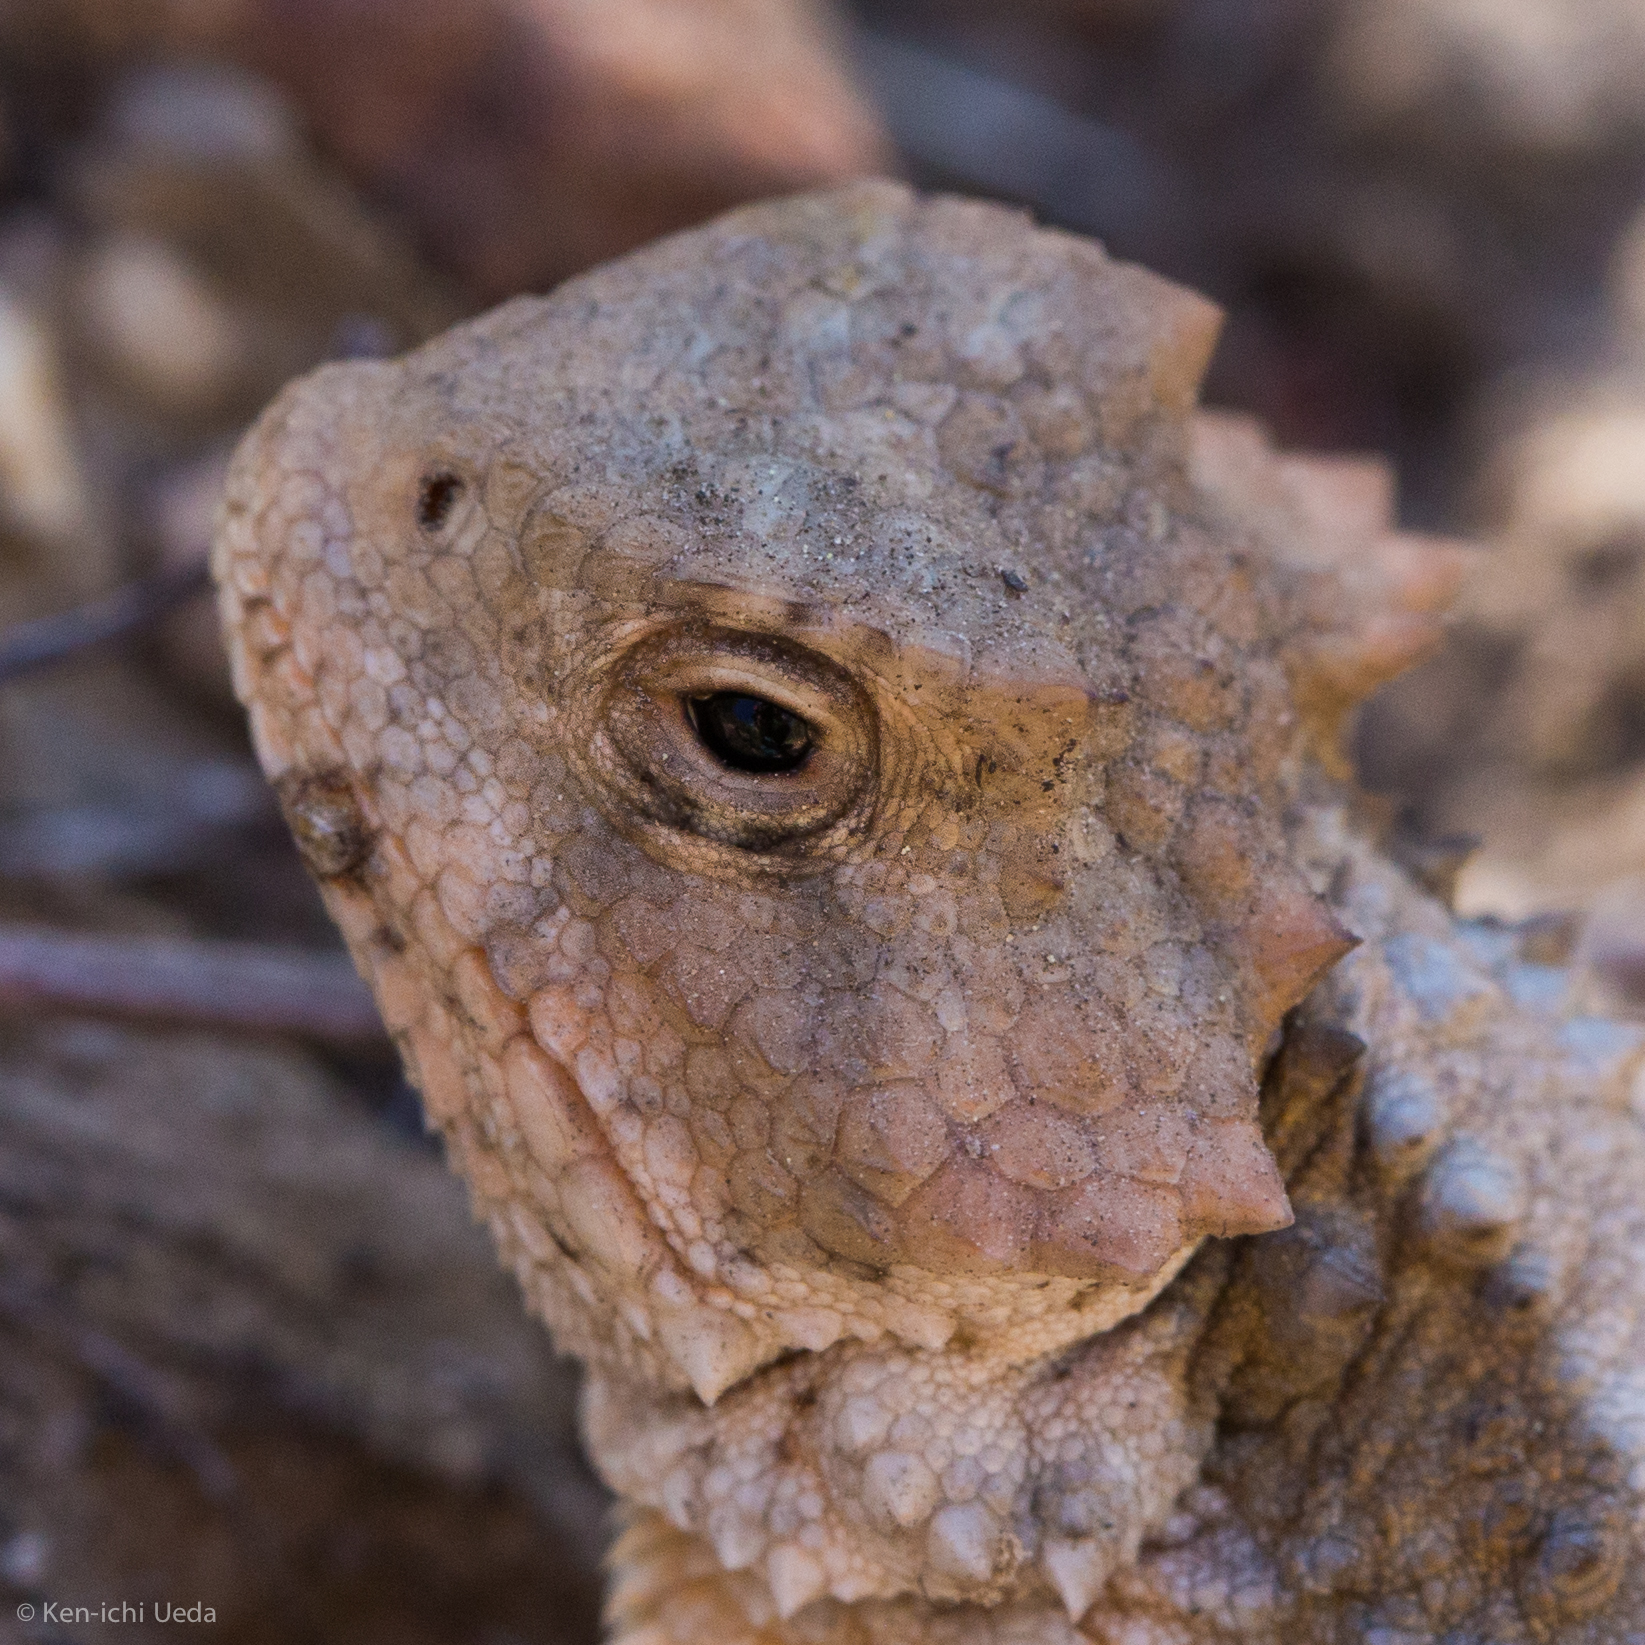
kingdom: Animalia
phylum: Chordata
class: Squamata
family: Phrynosomatidae
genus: Phrynosoma
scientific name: Phrynosoma hernandesi
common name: Greater short-horned lizard
